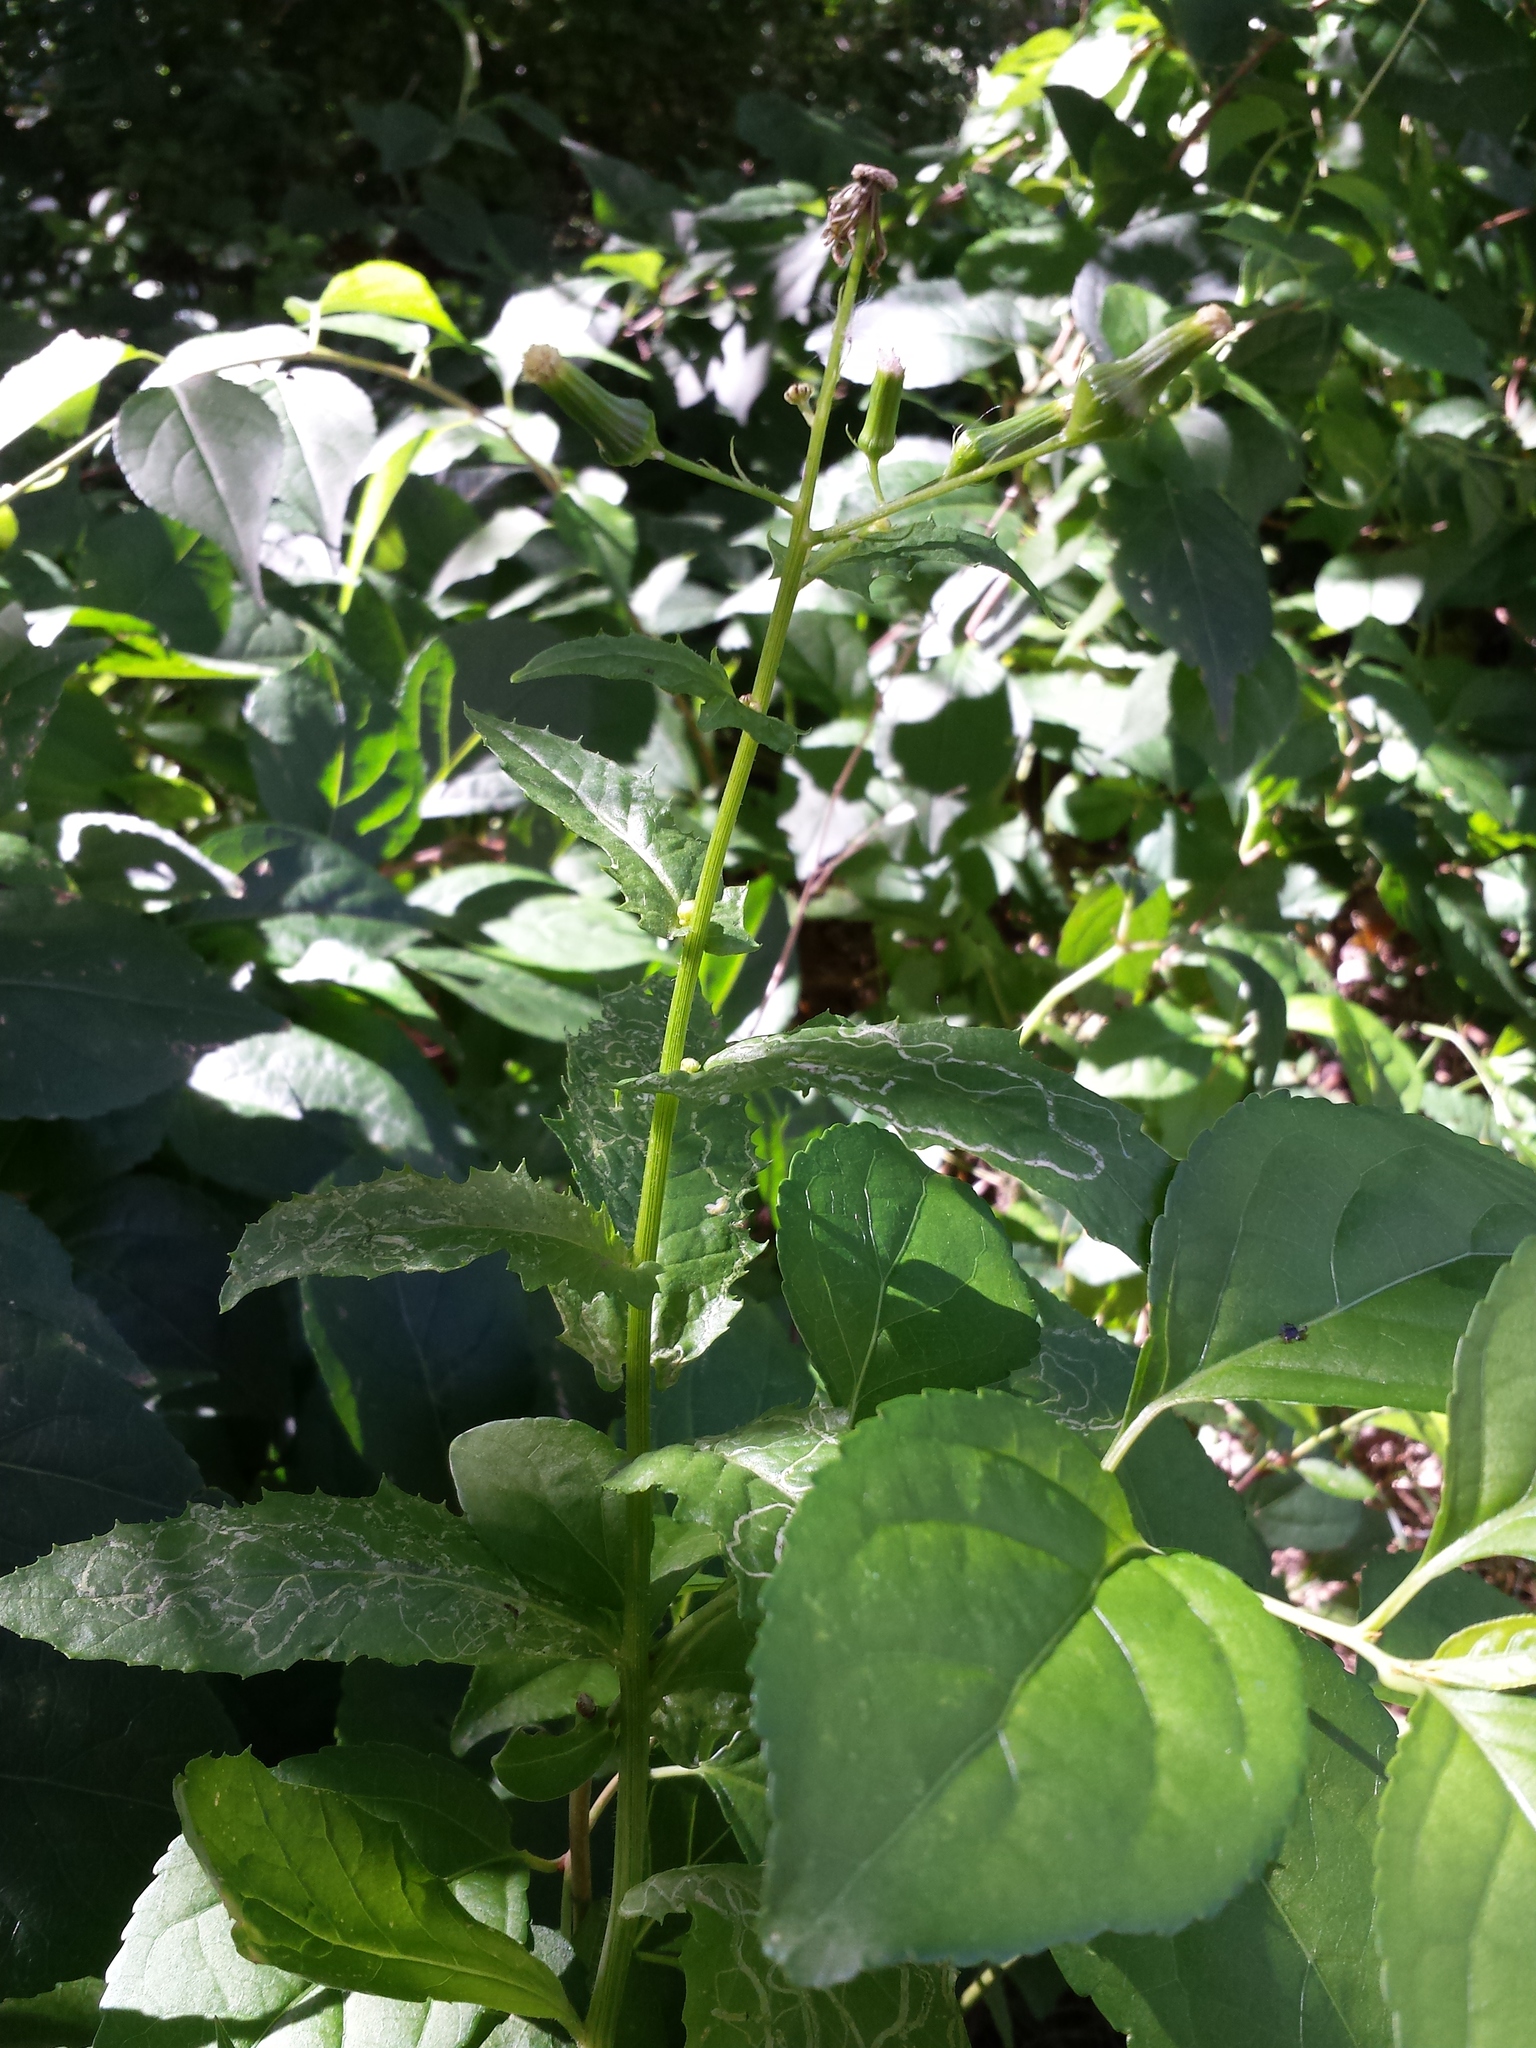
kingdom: Plantae
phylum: Tracheophyta
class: Magnoliopsida
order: Asterales
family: Asteraceae
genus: Erechtites
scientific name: Erechtites hieraciifolius
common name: American burnweed
